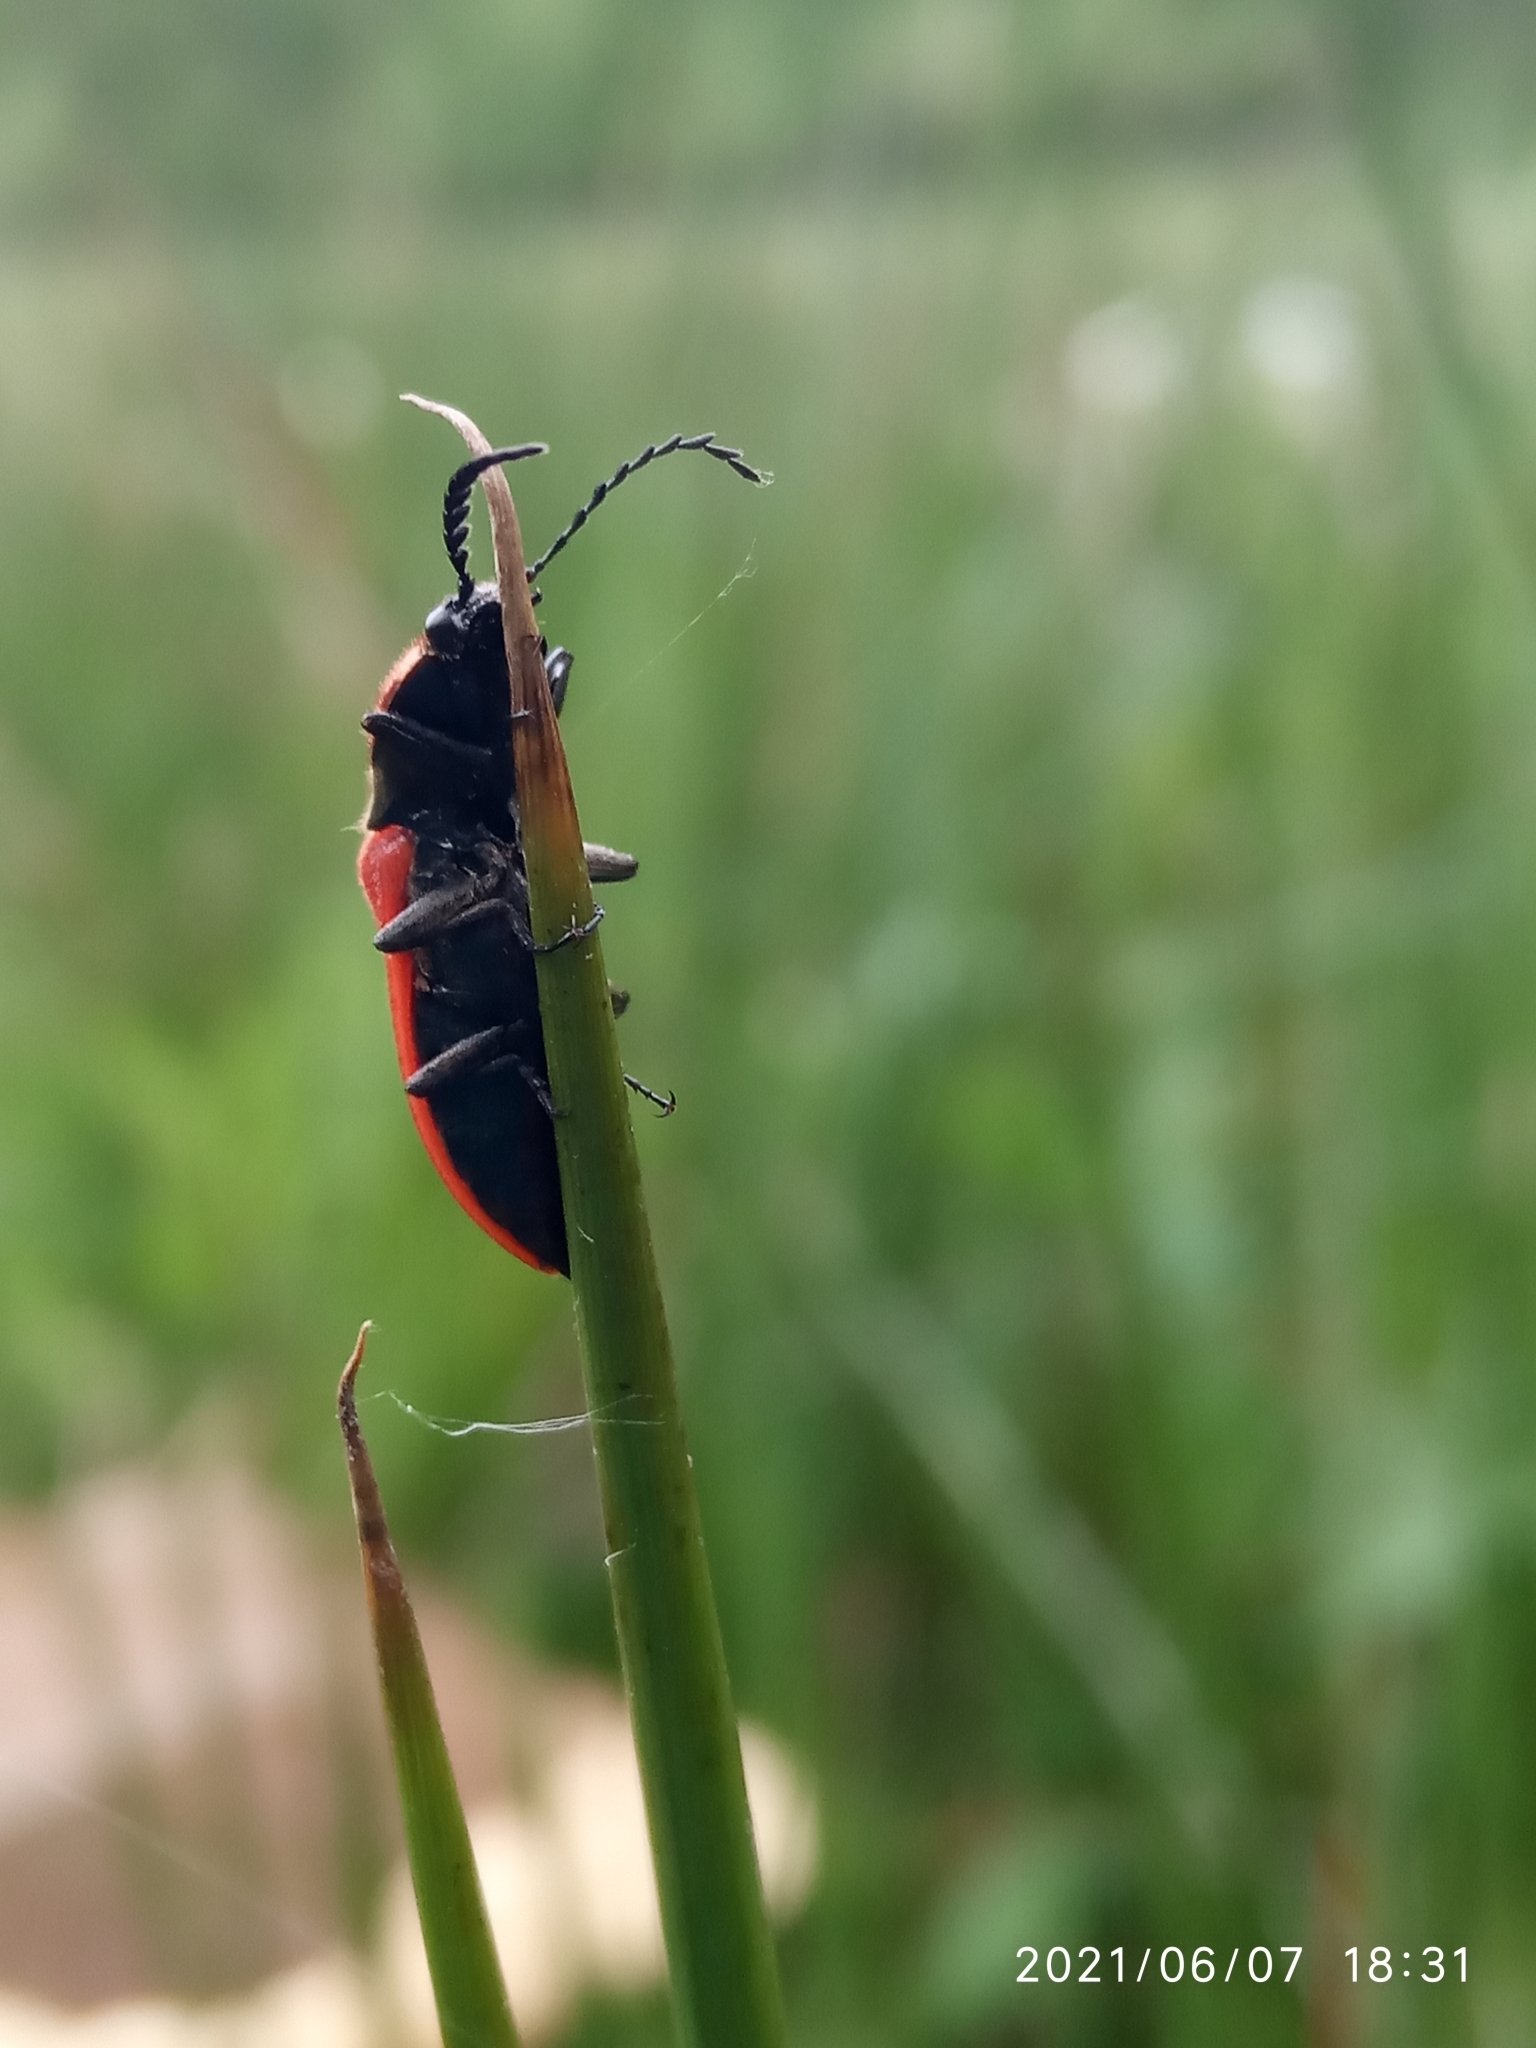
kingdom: Animalia
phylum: Arthropoda
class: Insecta
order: Coleoptera
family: Elateridae
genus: Anostirus
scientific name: Anostirus purpureus
